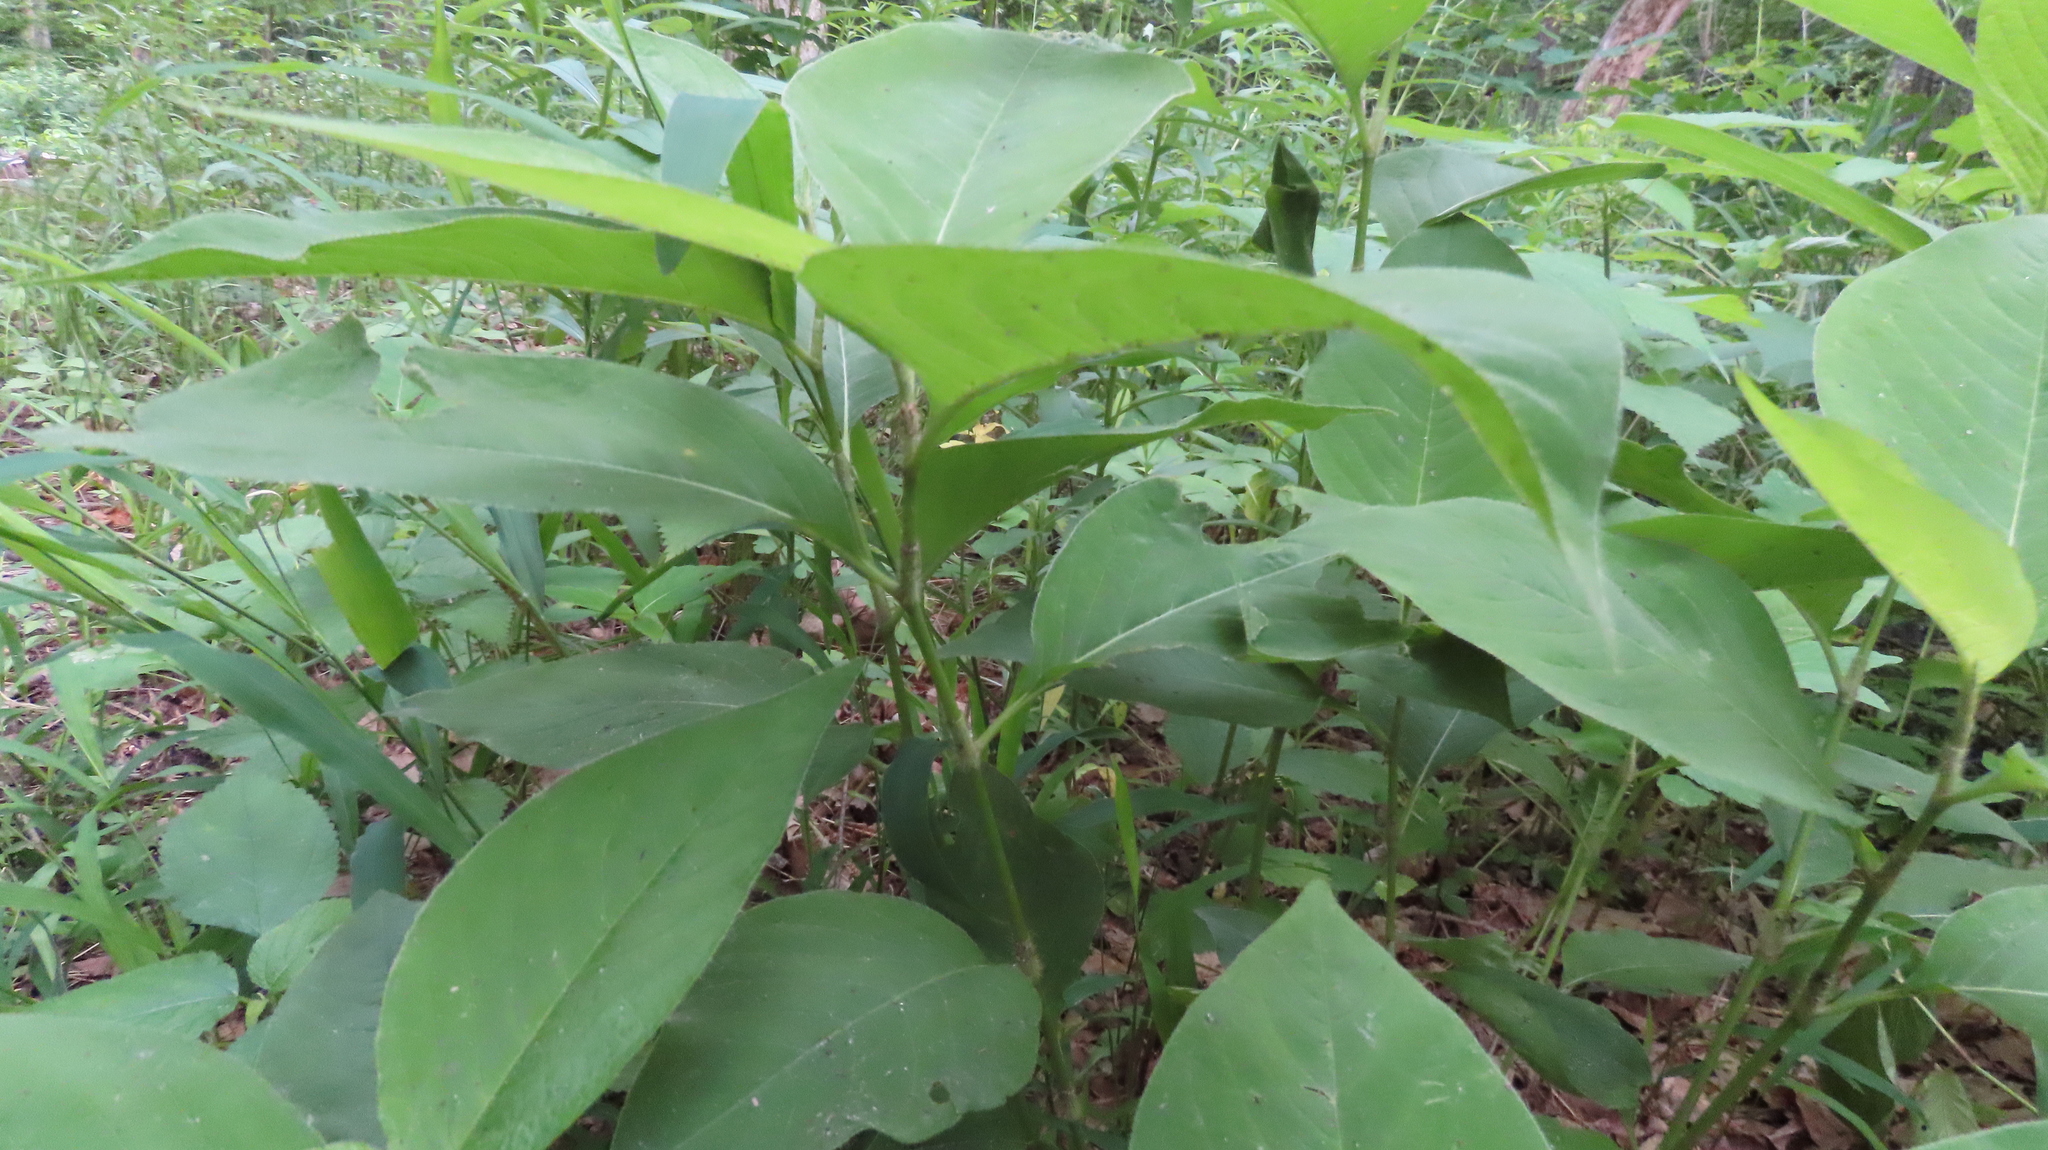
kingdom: Plantae
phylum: Tracheophyta
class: Magnoliopsida
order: Caryophyllales
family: Polygonaceae
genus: Persicaria
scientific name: Persicaria virginiana
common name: Jumpseed
